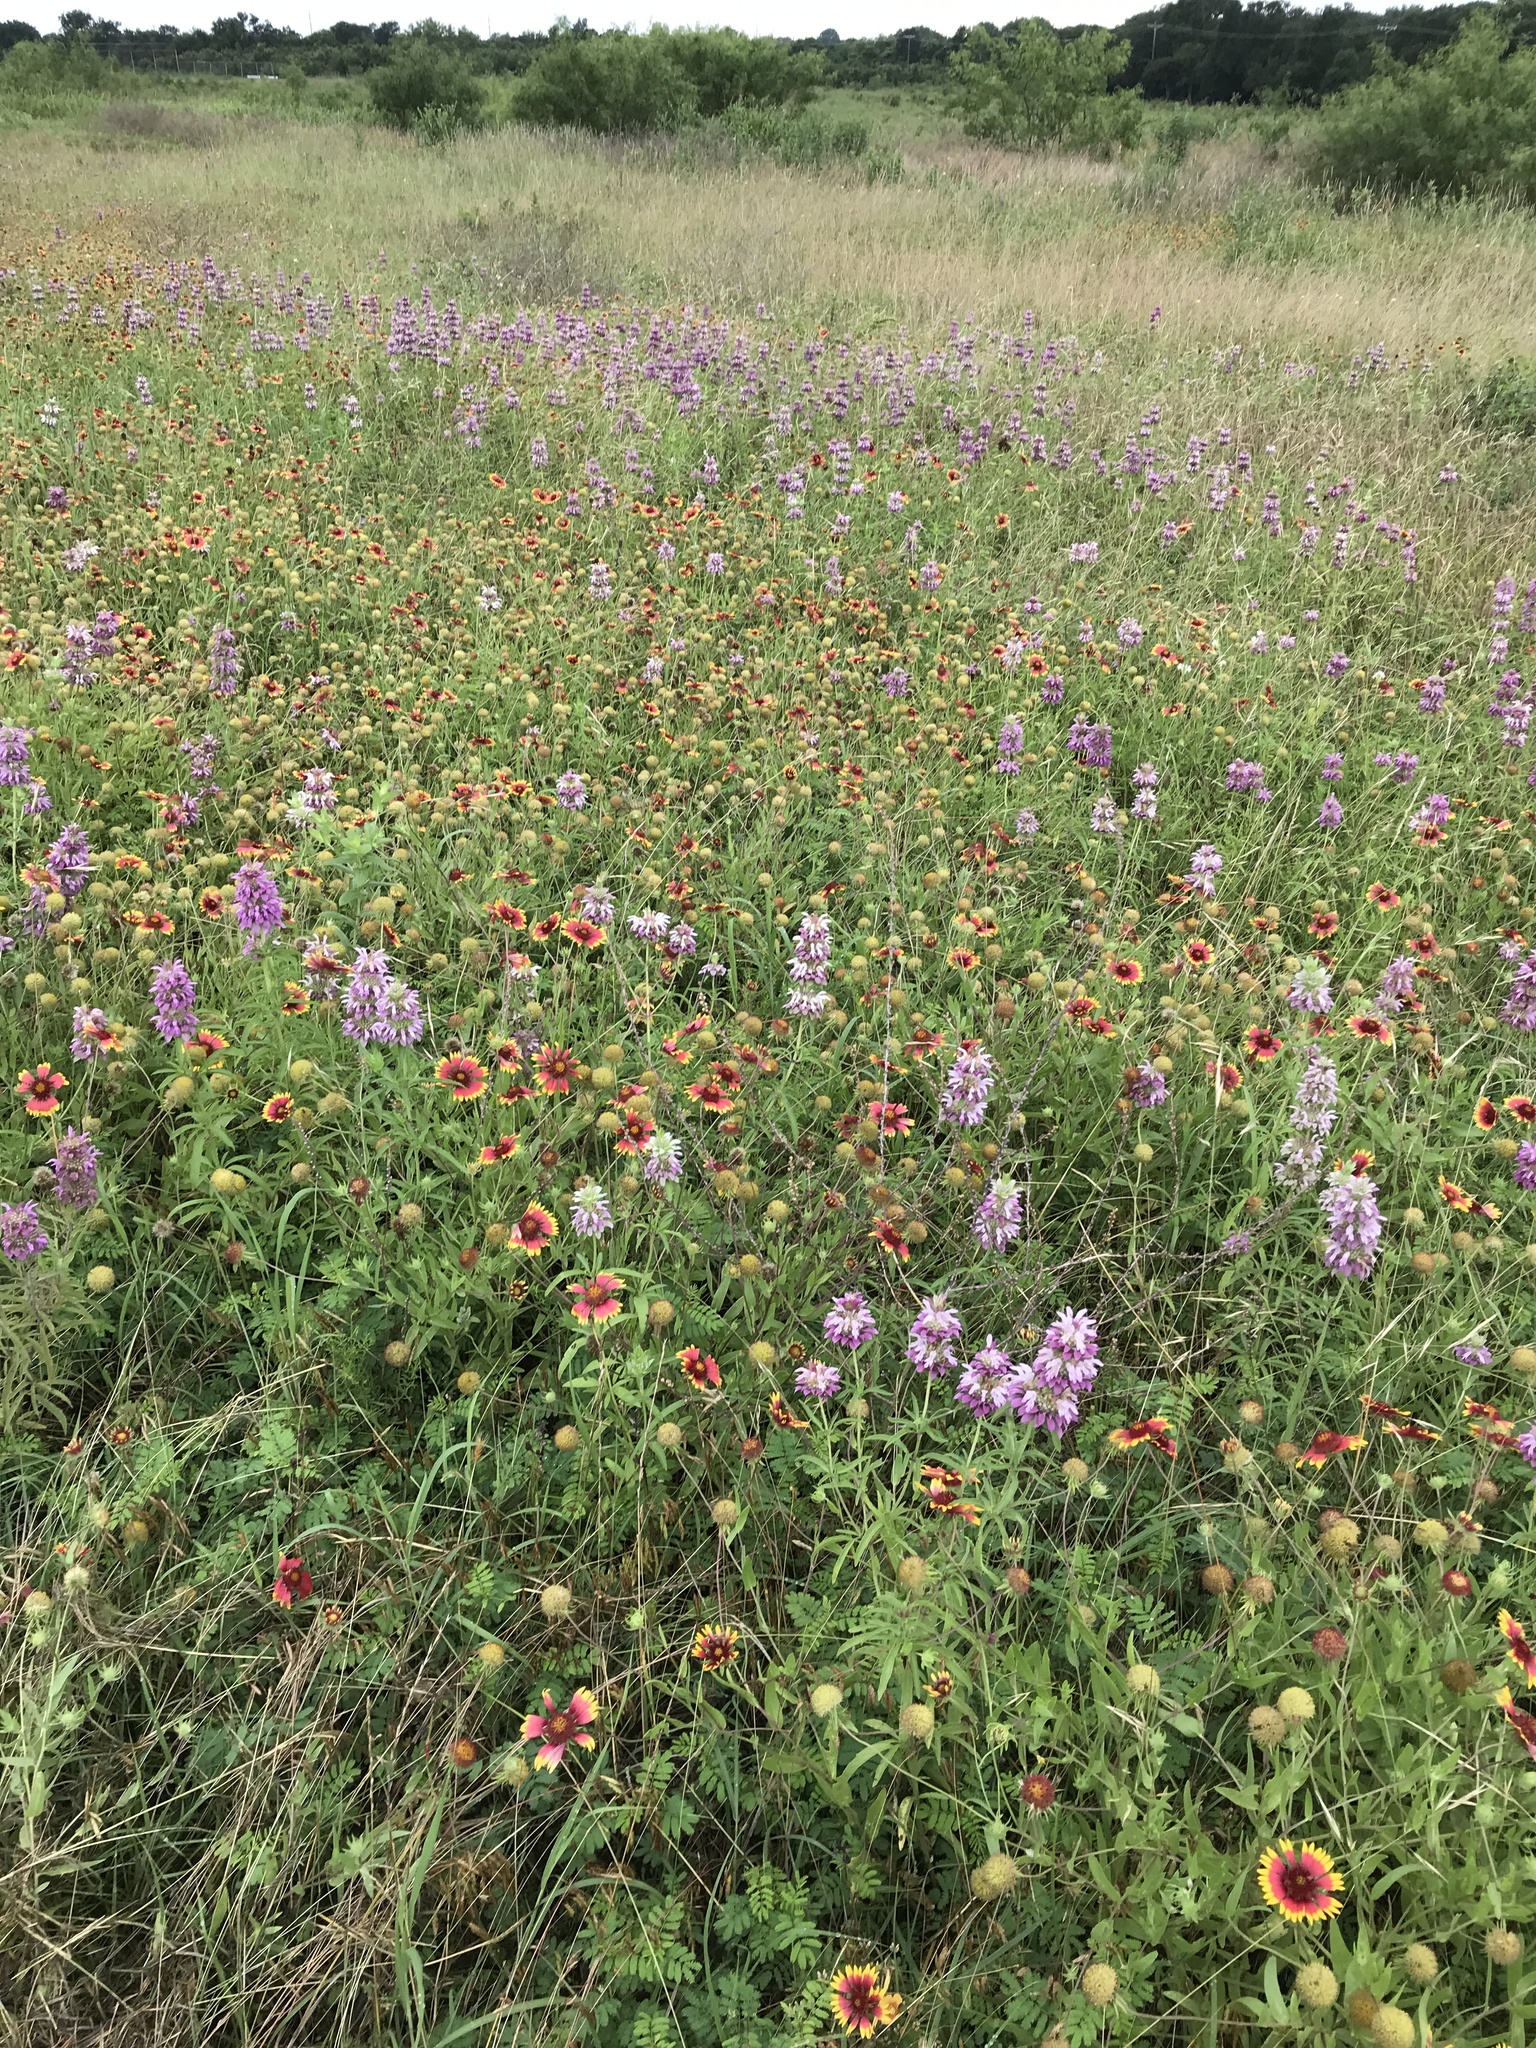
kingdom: Plantae
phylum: Tracheophyta
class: Magnoliopsida
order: Lamiales
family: Lamiaceae
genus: Monarda
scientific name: Monarda citriodora
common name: Lemon beebalm
